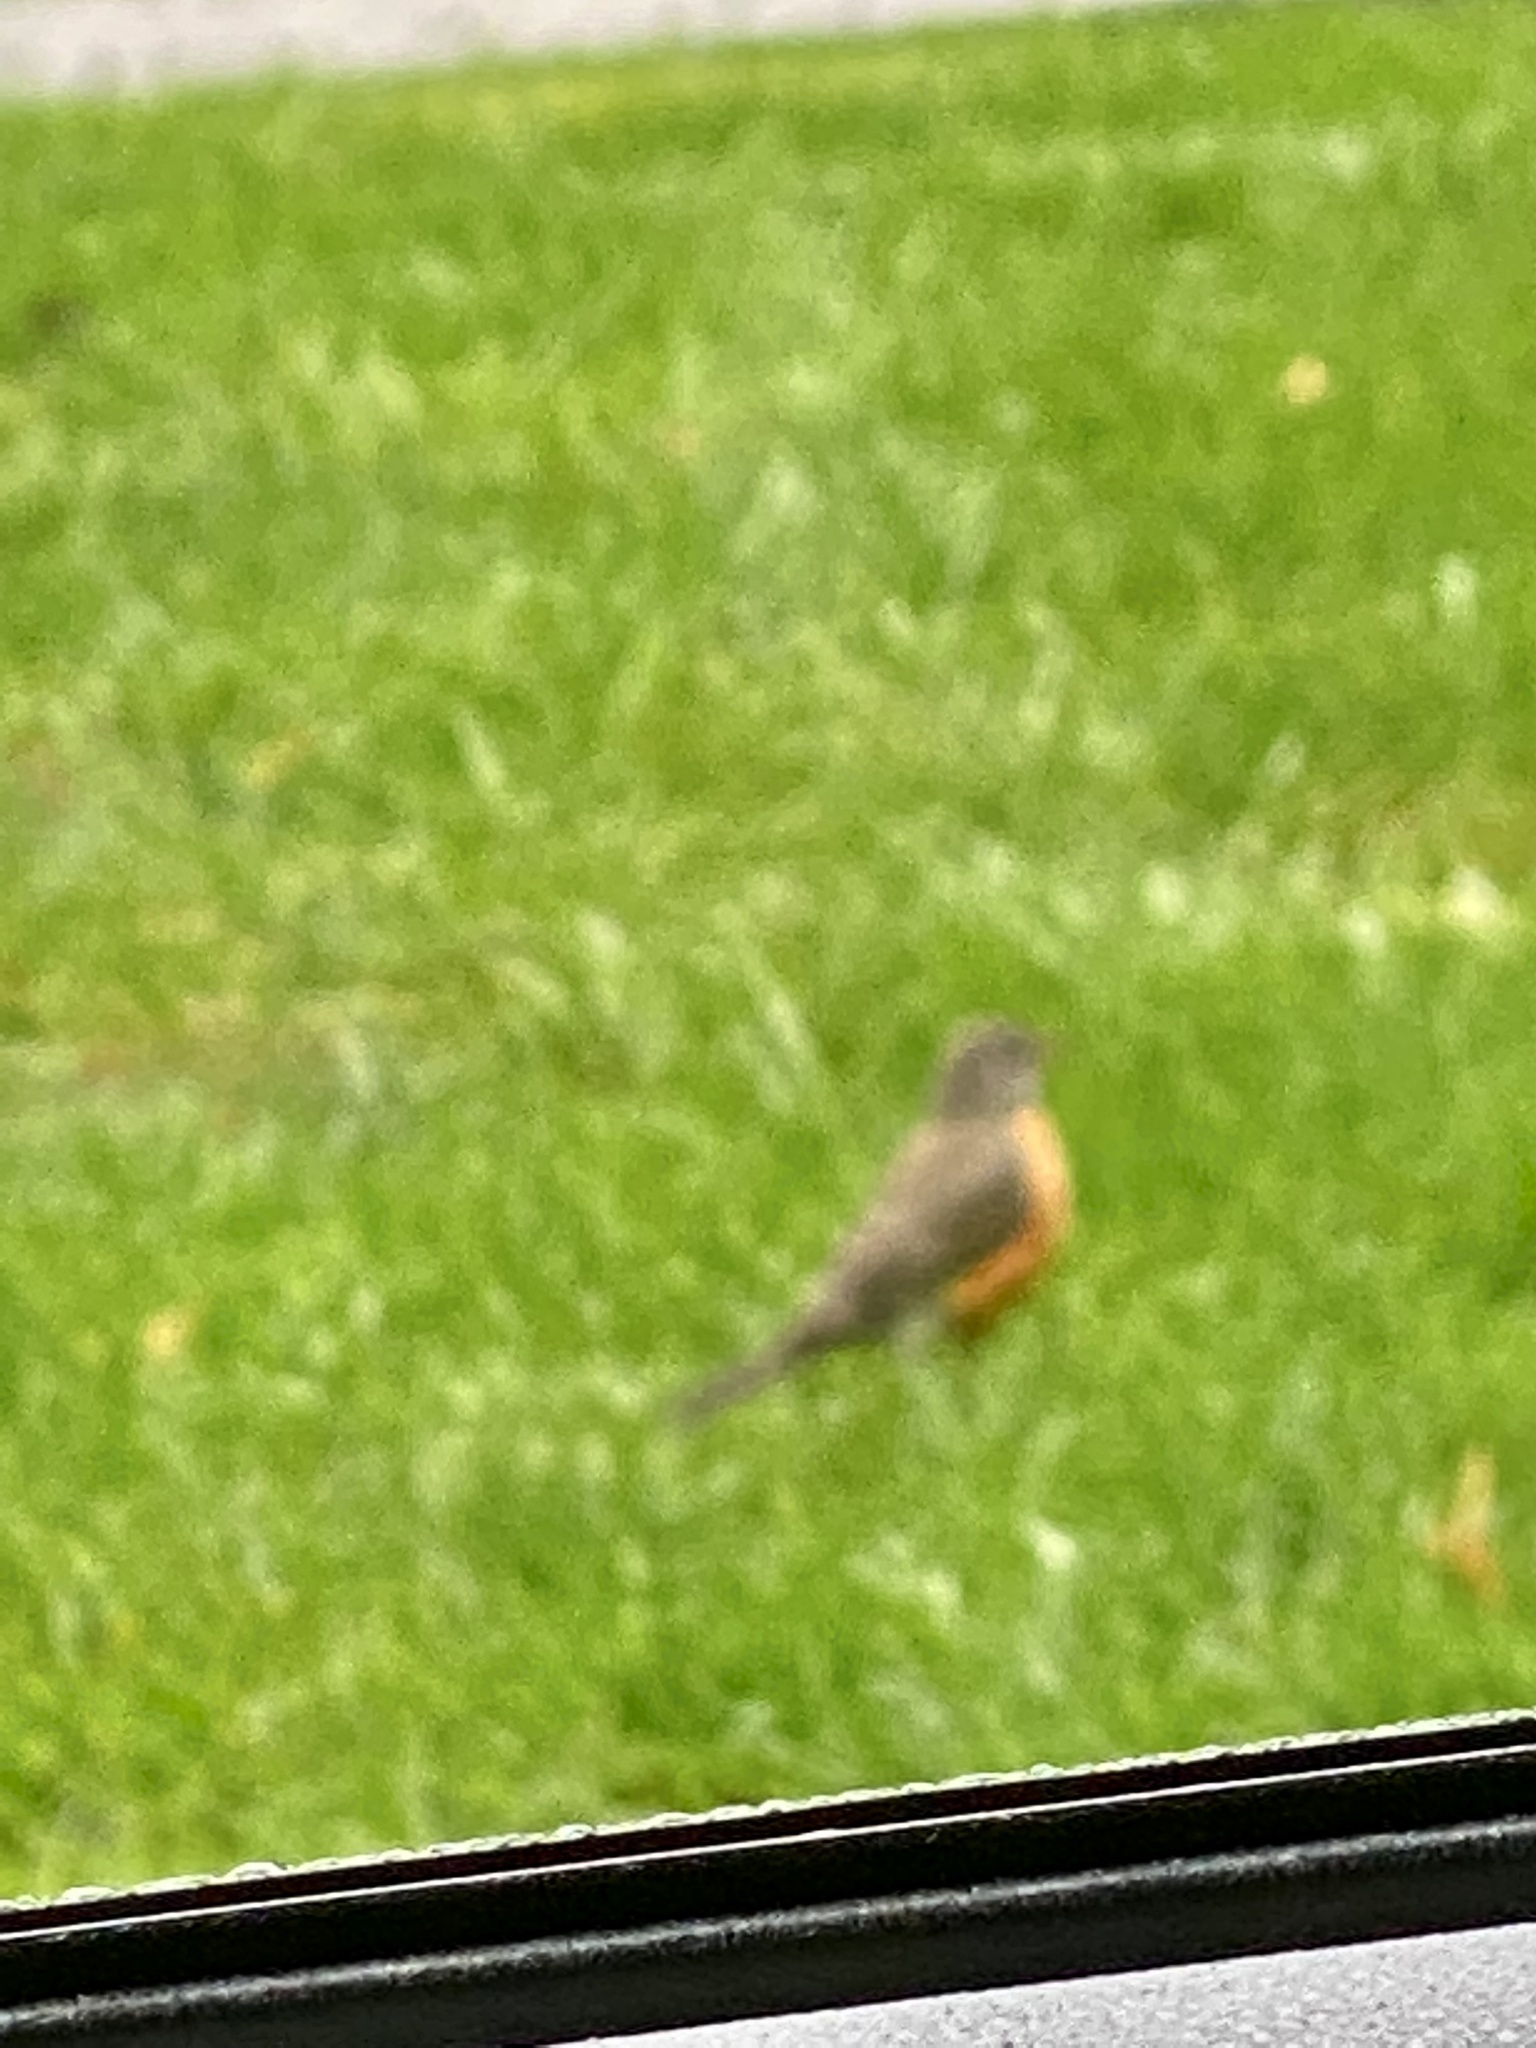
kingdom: Animalia
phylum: Chordata
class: Aves
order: Passeriformes
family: Turdidae
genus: Turdus
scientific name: Turdus migratorius
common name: American robin
